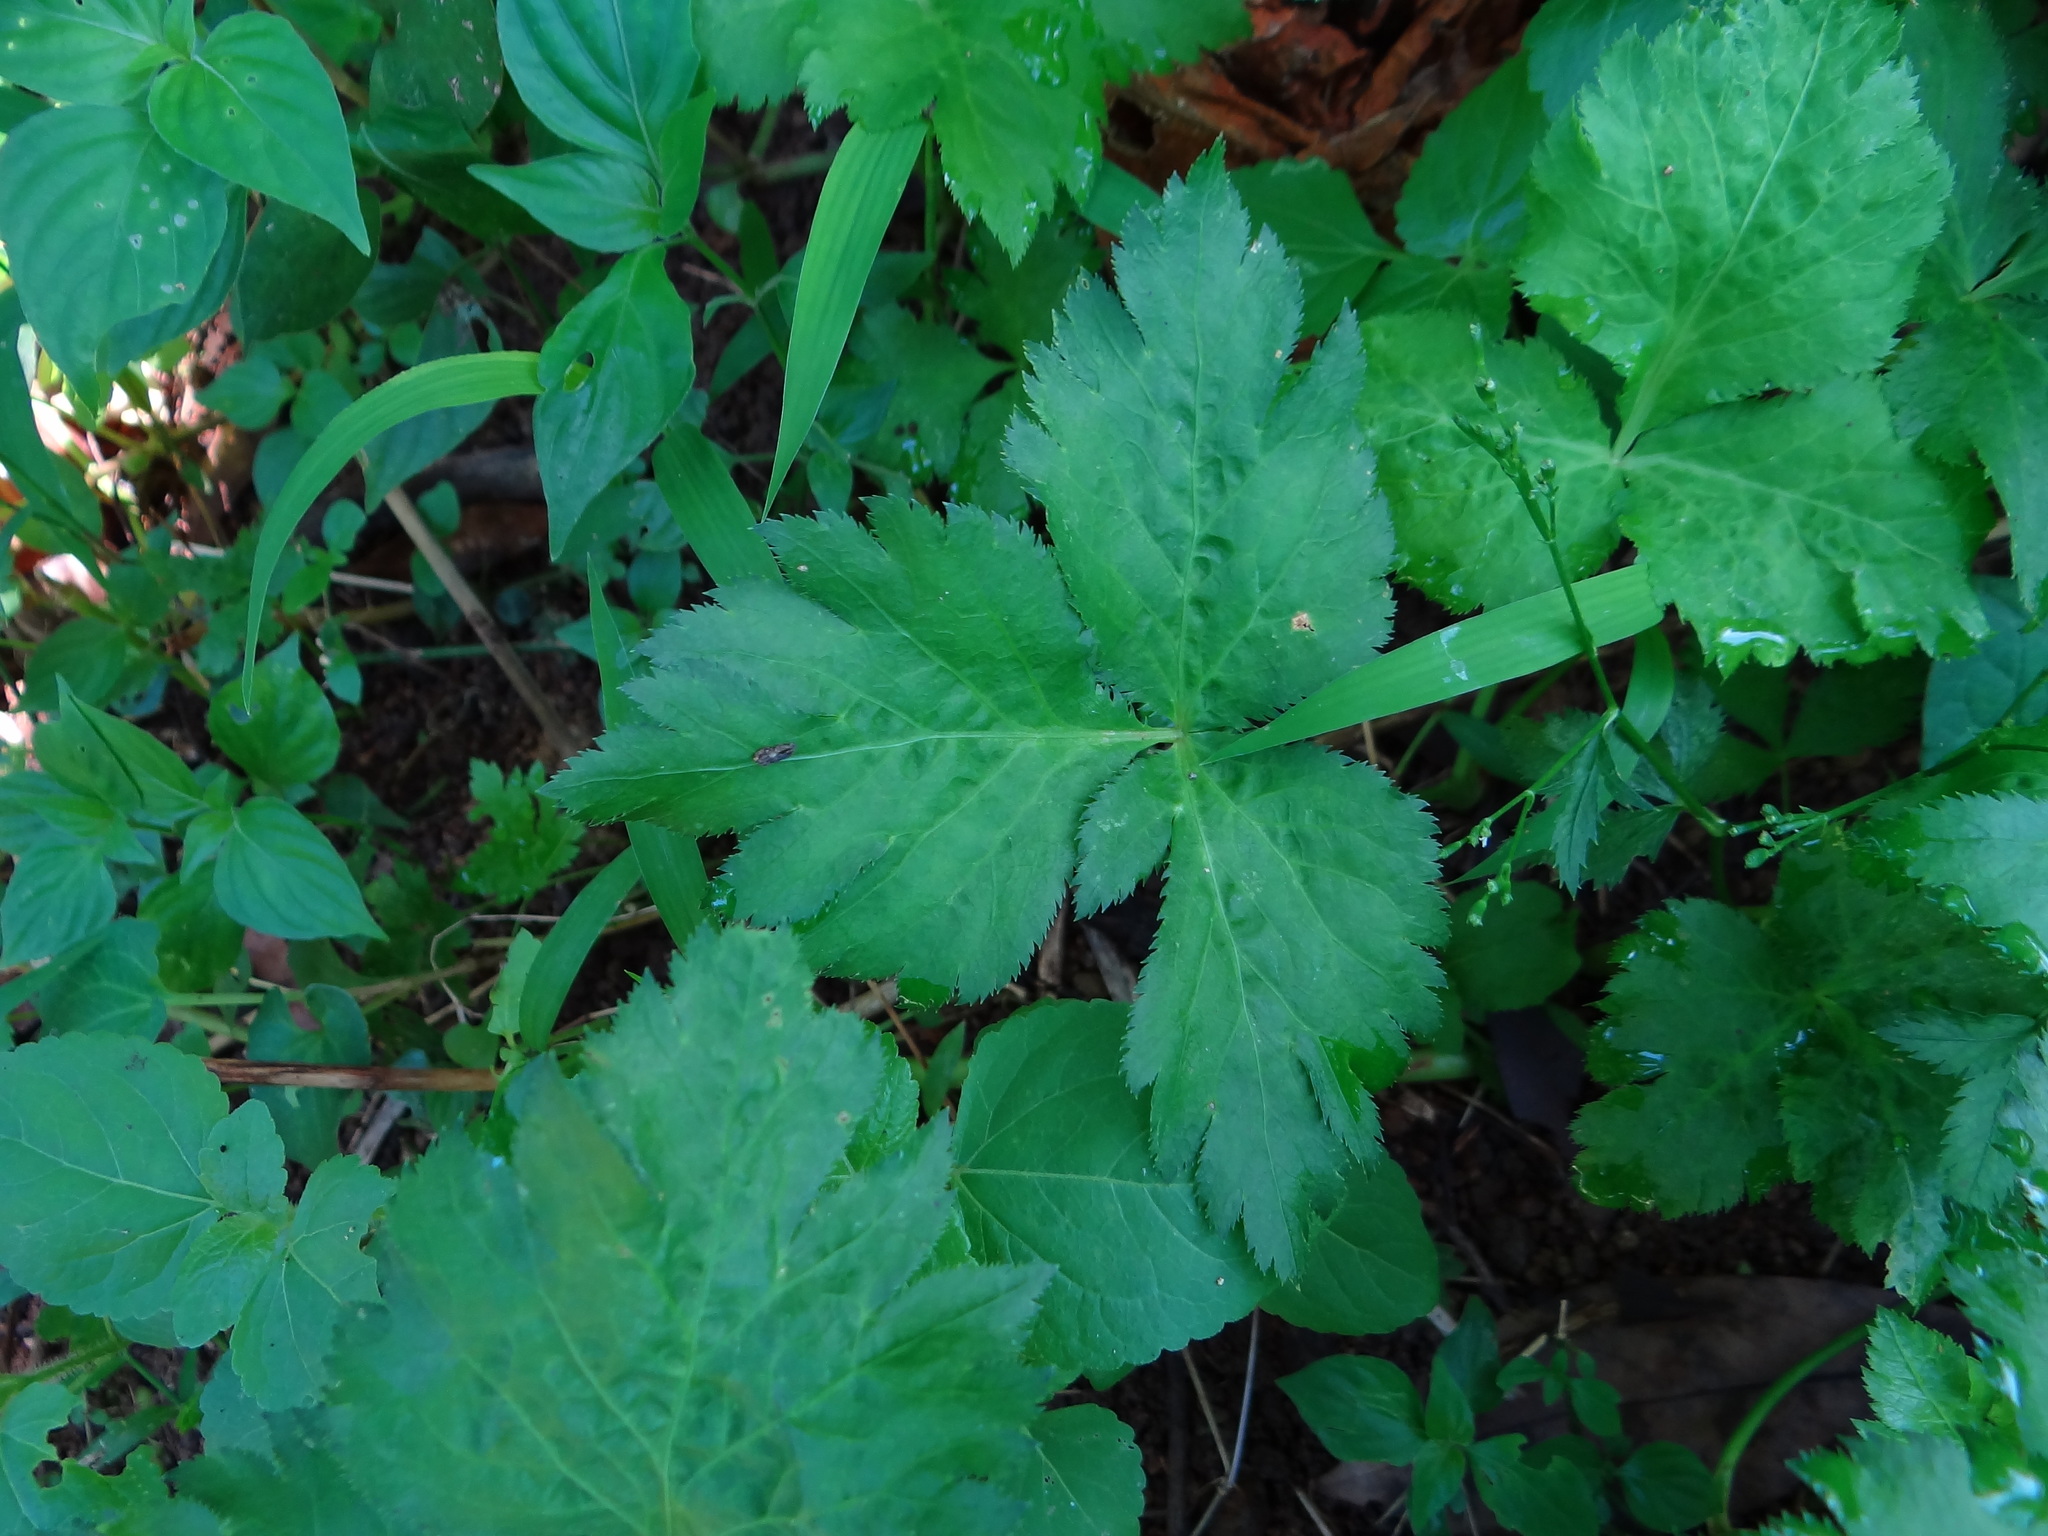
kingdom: Plantae
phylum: Tracheophyta
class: Magnoliopsida
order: Apiales
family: Apiaceae
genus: Cryptotaenia
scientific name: Cryptotaenia japonica
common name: Japanese cryptotaenia
